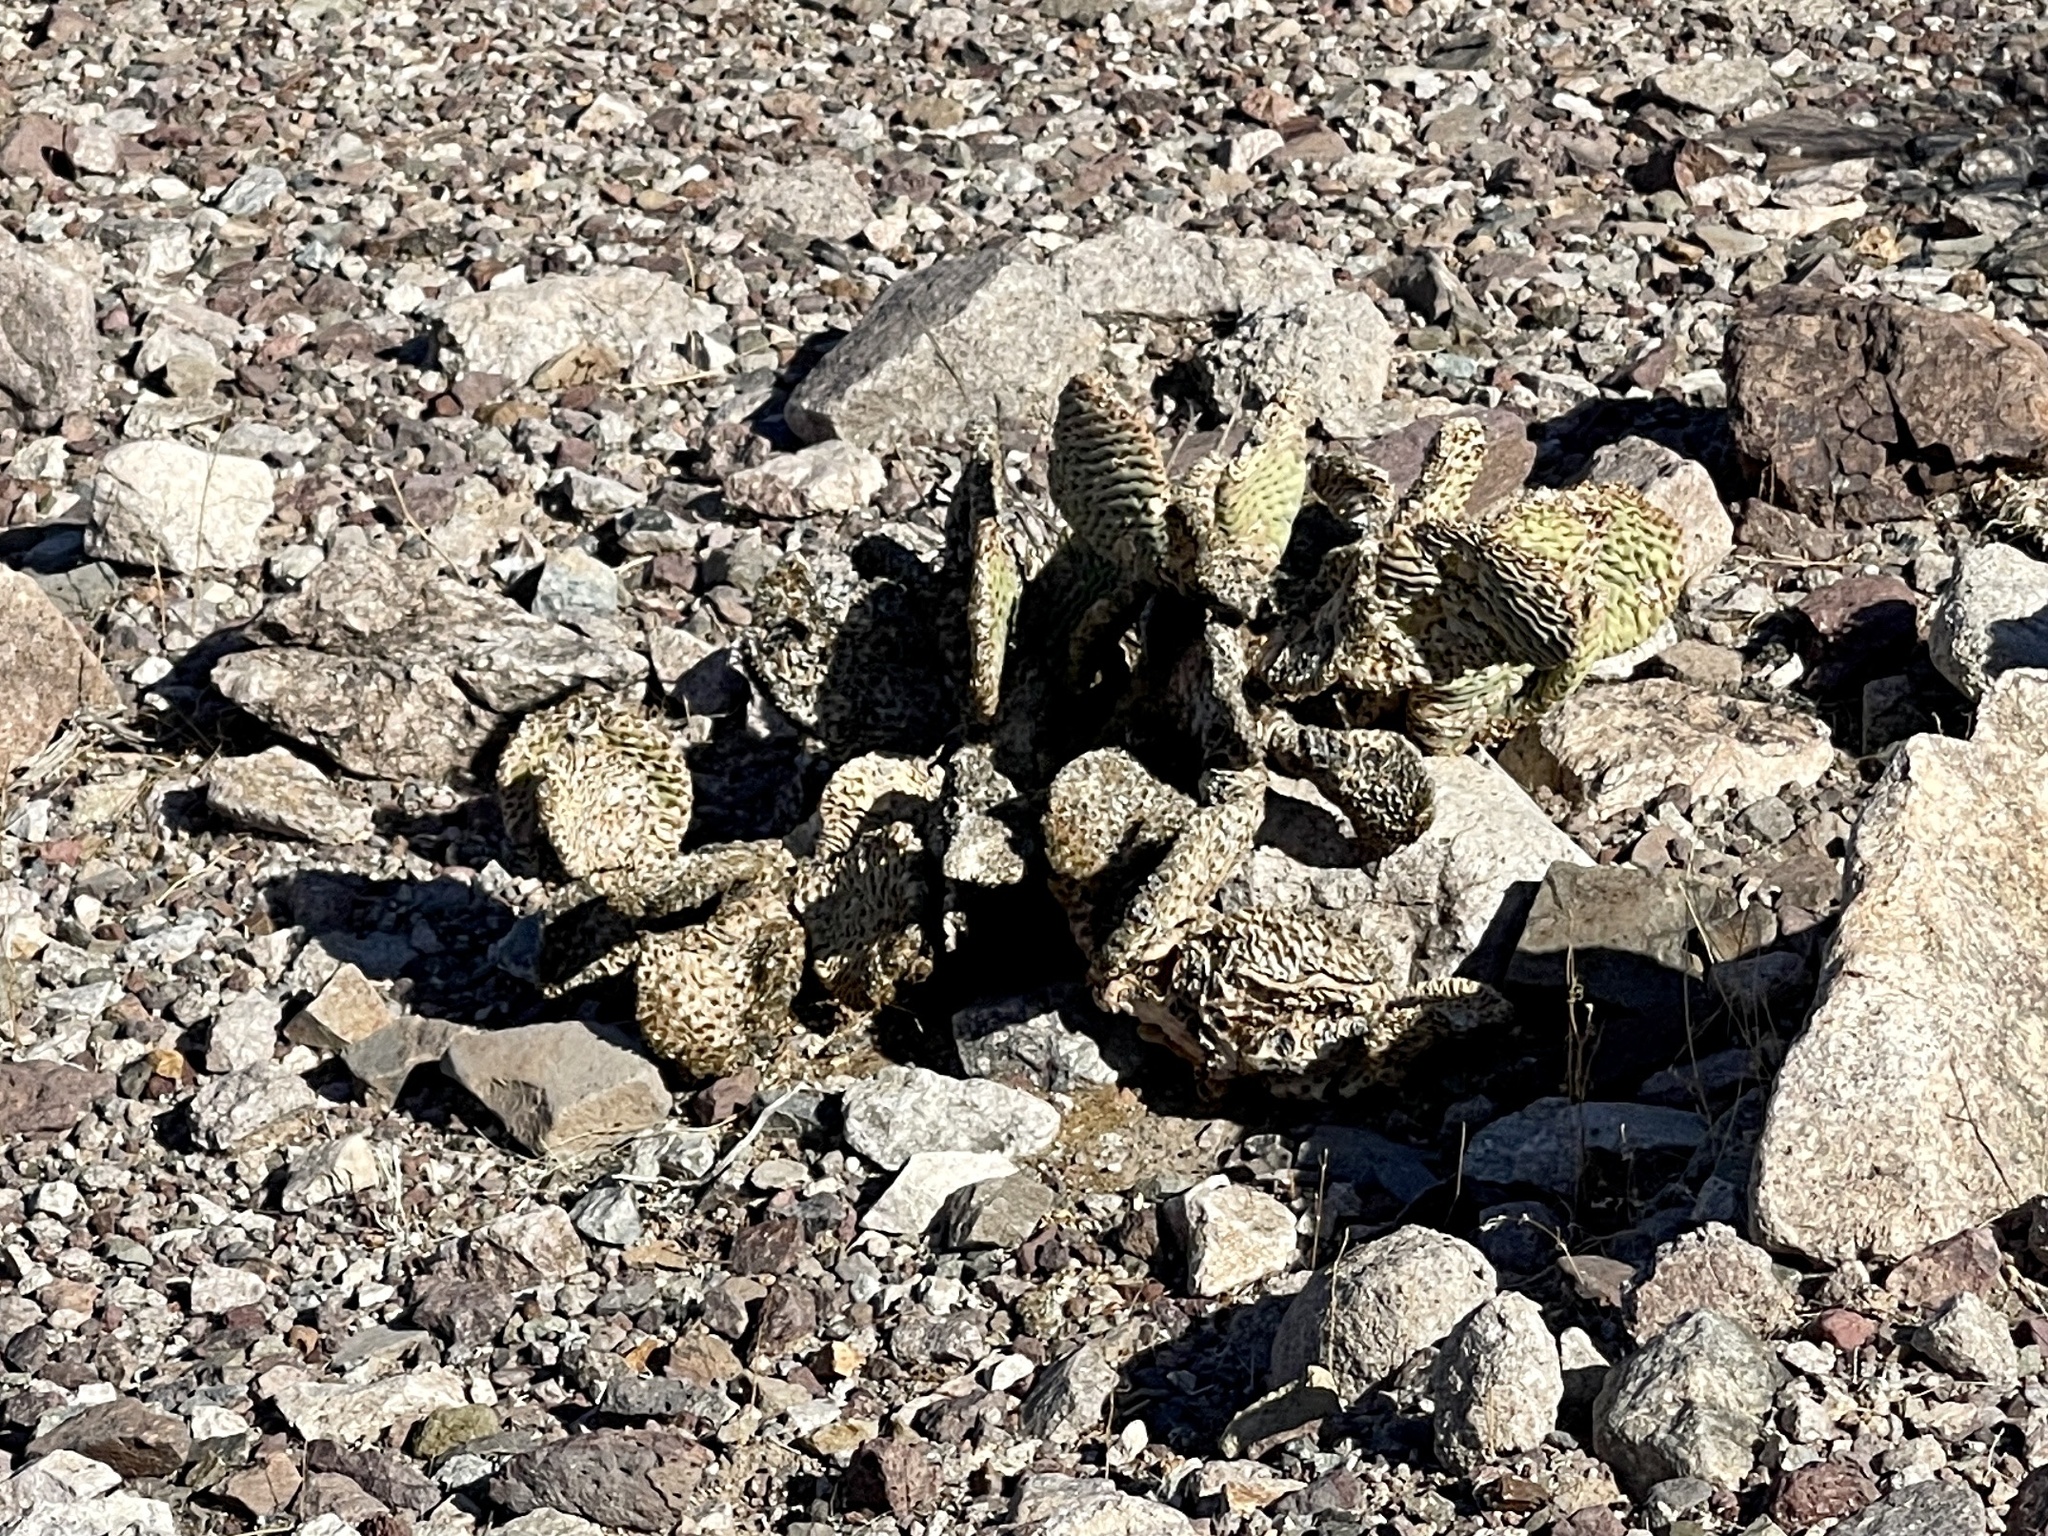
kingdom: Plantae
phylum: Tracheophyta
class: Magnoliopsida
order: Caryophyllales
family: Cactaceae
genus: Opuntia
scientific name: Opuntia basilaris
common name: Beavertail prickly-pear
